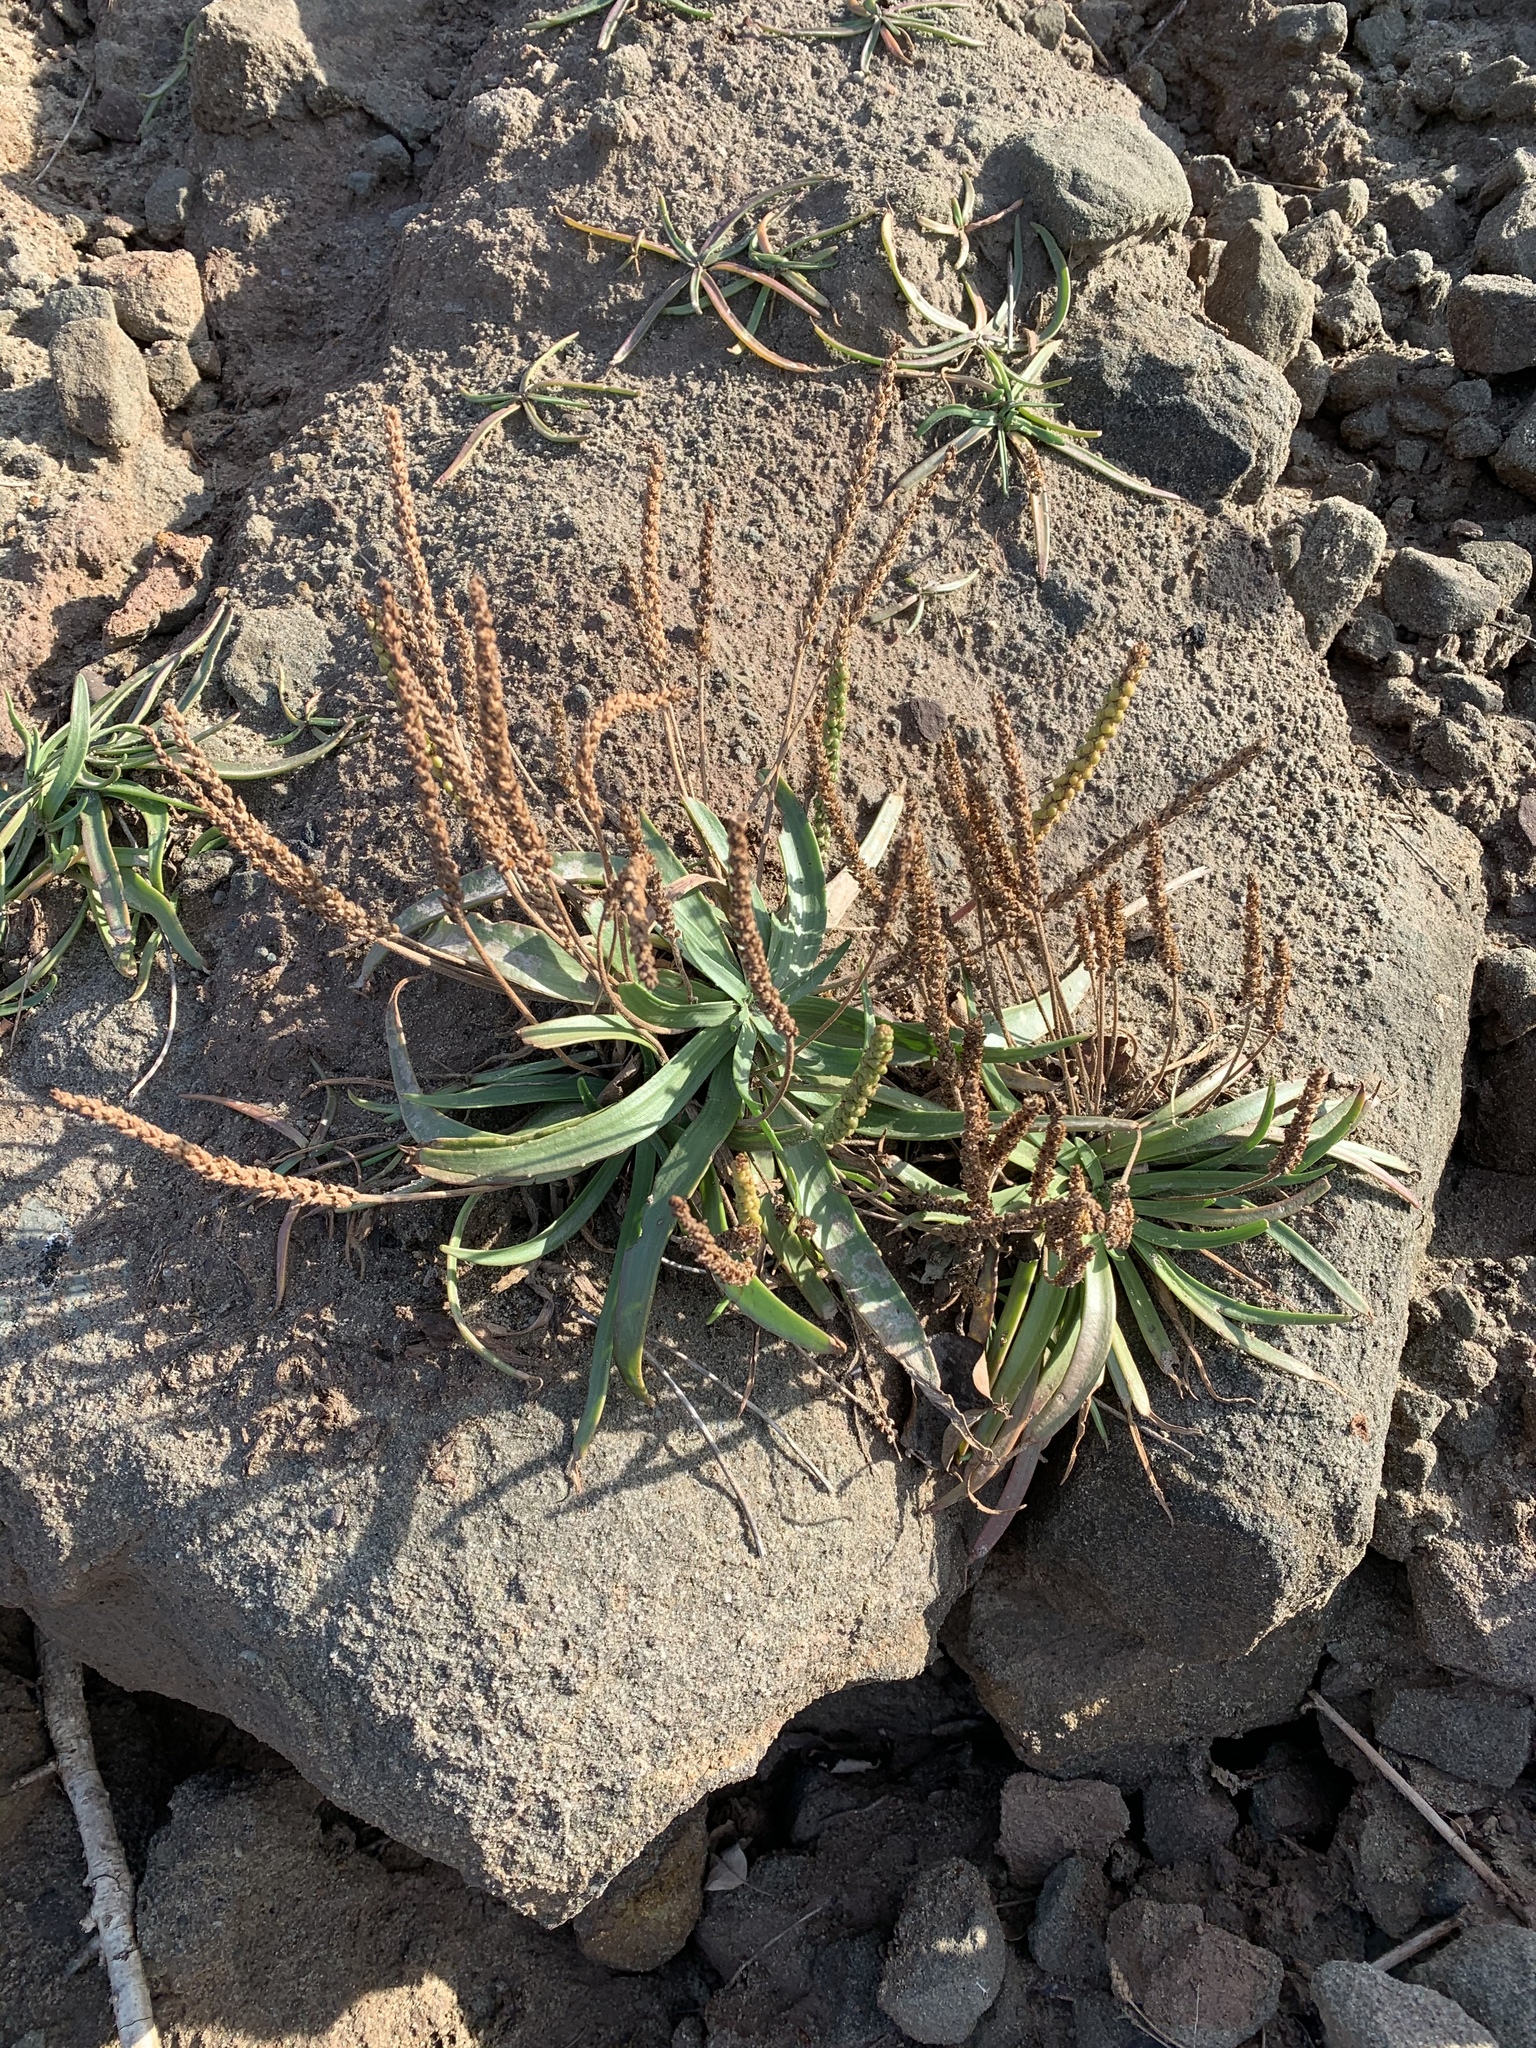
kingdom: Plantae
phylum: Tracheophyta
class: Magnoliopsida
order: Lamiales
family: Plantaginaceae
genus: Plantago
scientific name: Plantago maritima
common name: Sea plantain
